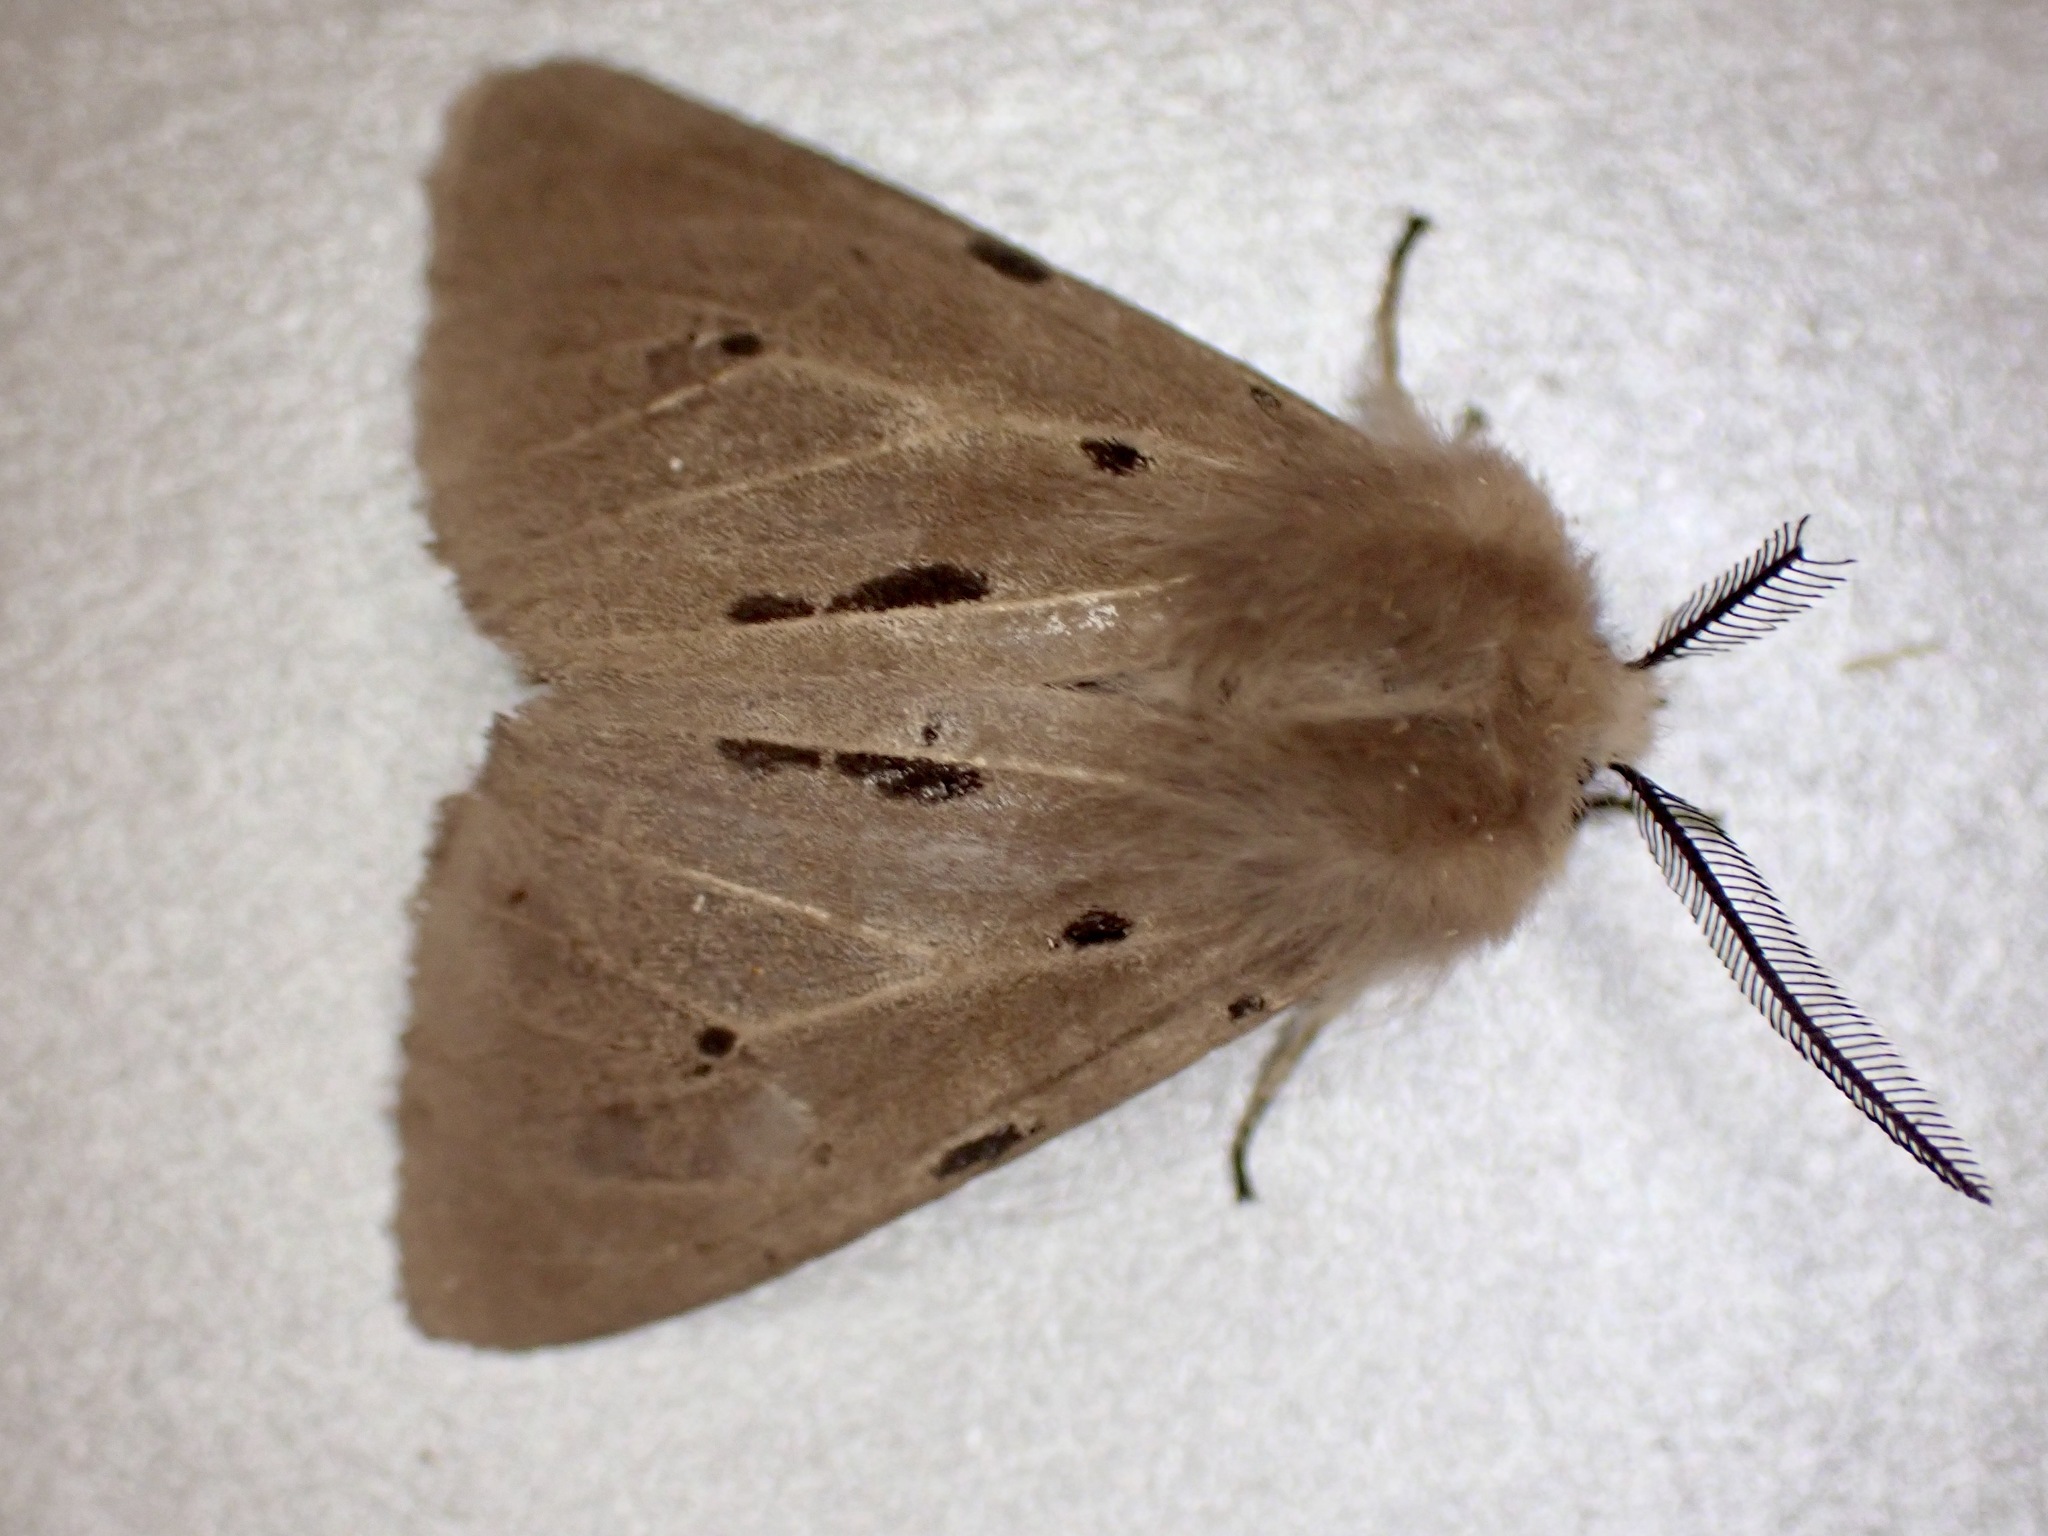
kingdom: Animalia
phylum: Arthropoda
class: Insecta
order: Lepidoptera
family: Erebidae
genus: Diaphora
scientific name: Diaphora mendica
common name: Muslin moth
